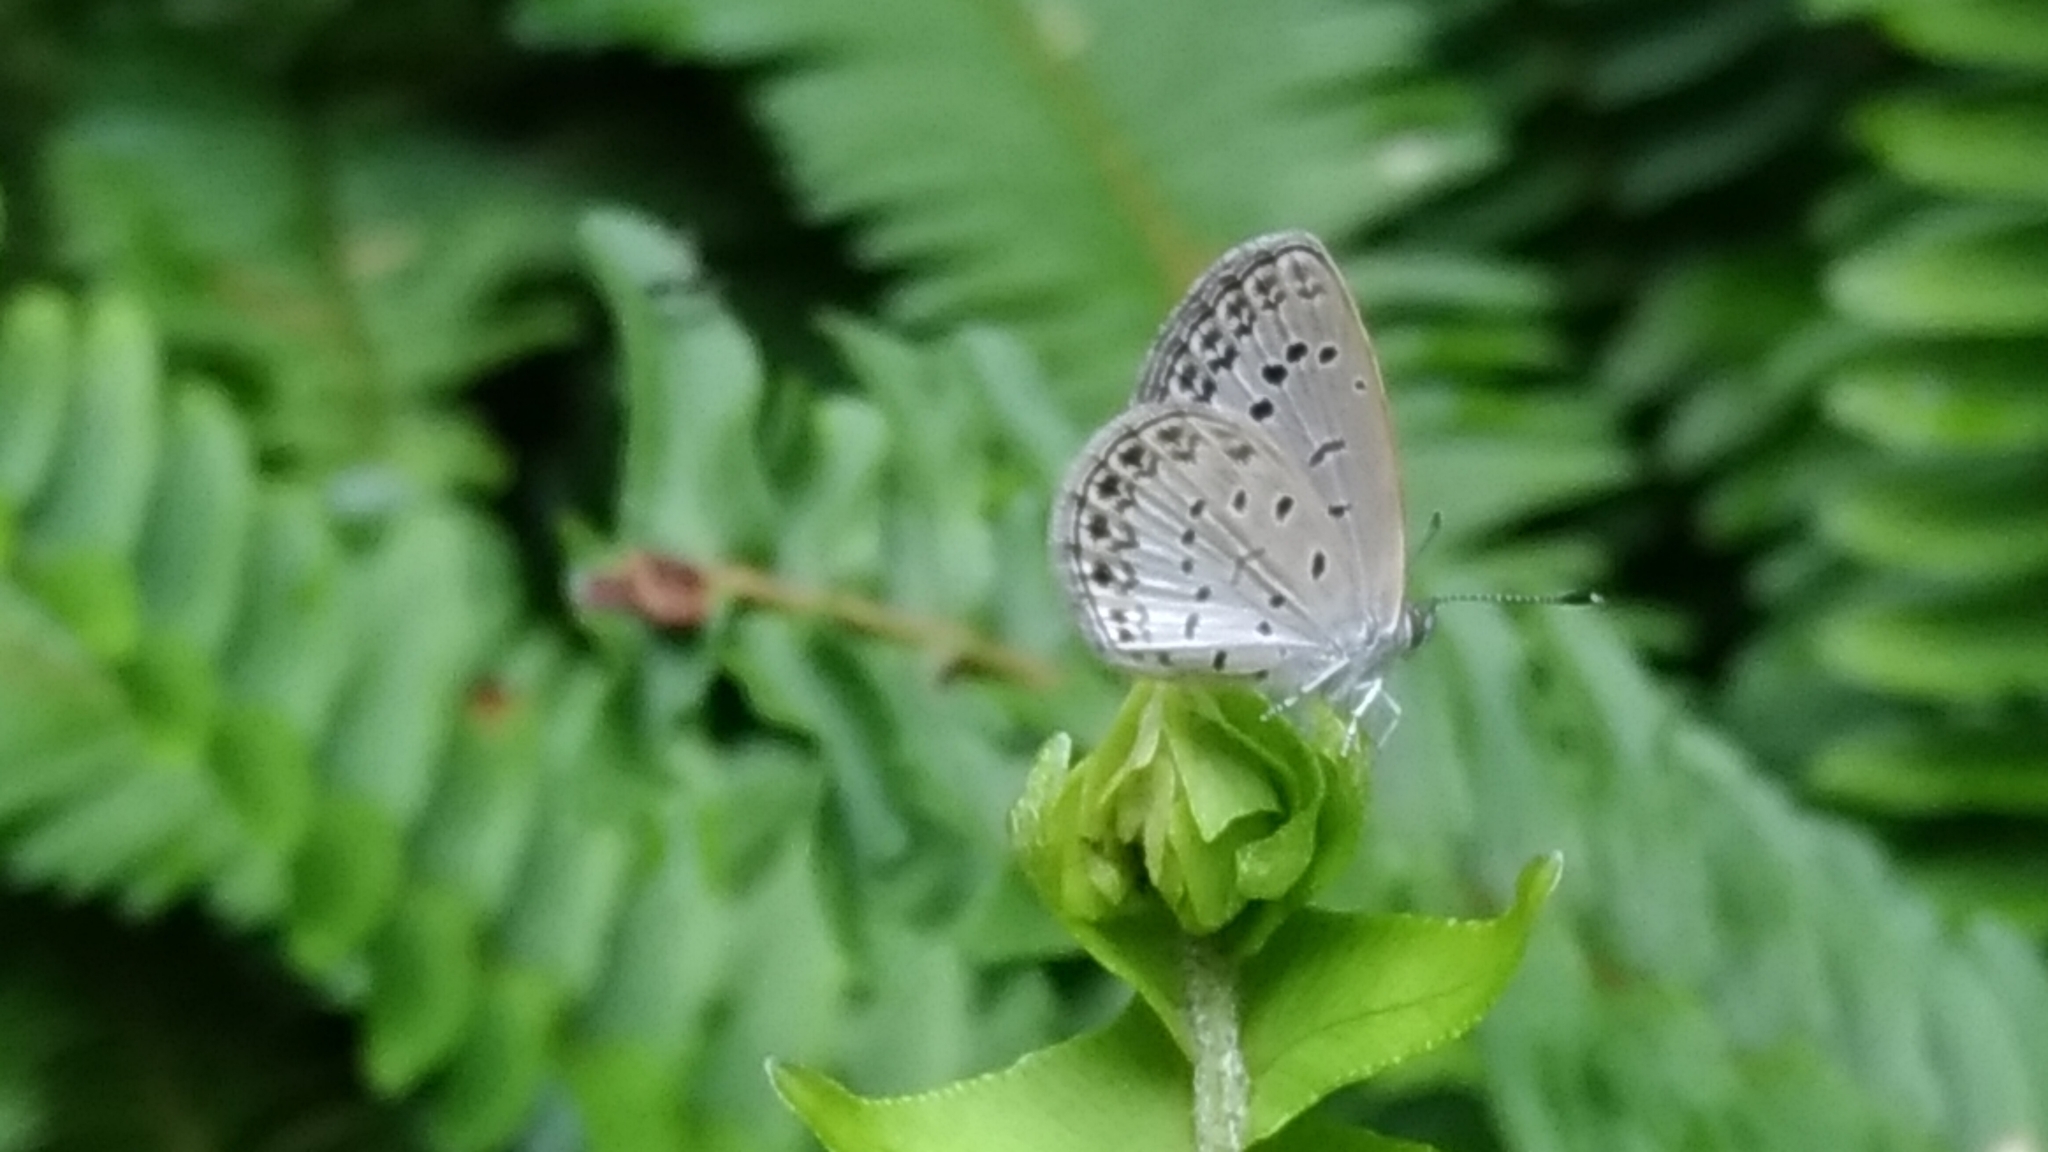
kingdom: Animalia
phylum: Arthropoda
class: Insecta
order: Lepidoptera
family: Lycaenidae
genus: Pseudozizeeria
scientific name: Pseudozizeeria maha
